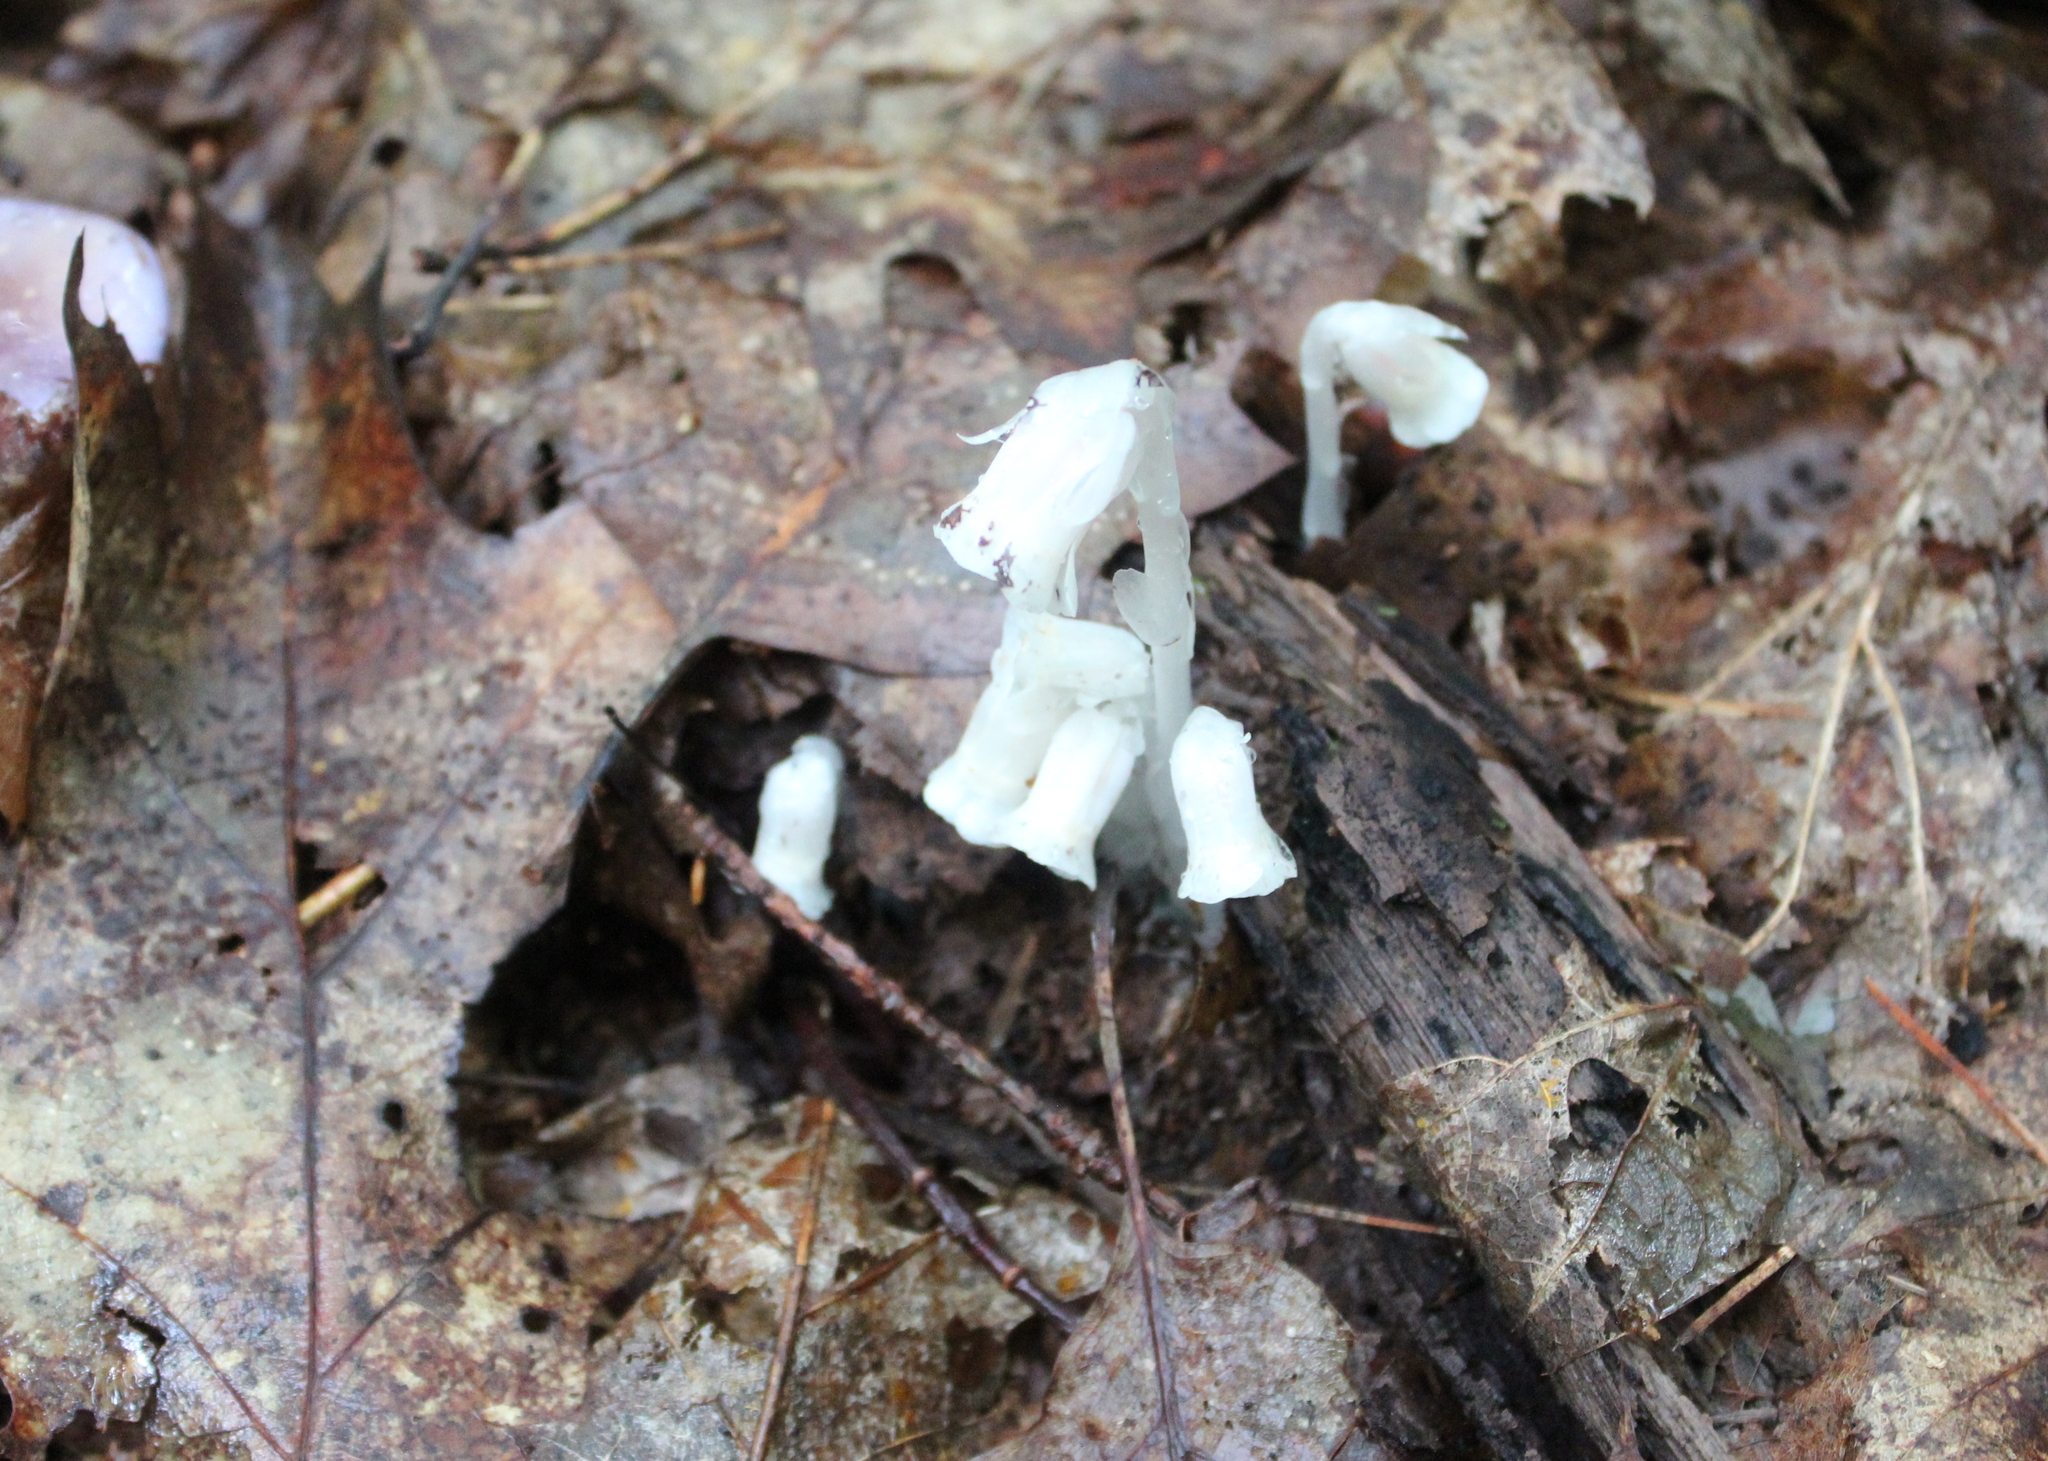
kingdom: Plantae
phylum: Tracheophyta
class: Magnoliopsida
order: Ericales
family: Ericaceae
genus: Monotropa
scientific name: Monotropa uniflora
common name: Convulsion root
